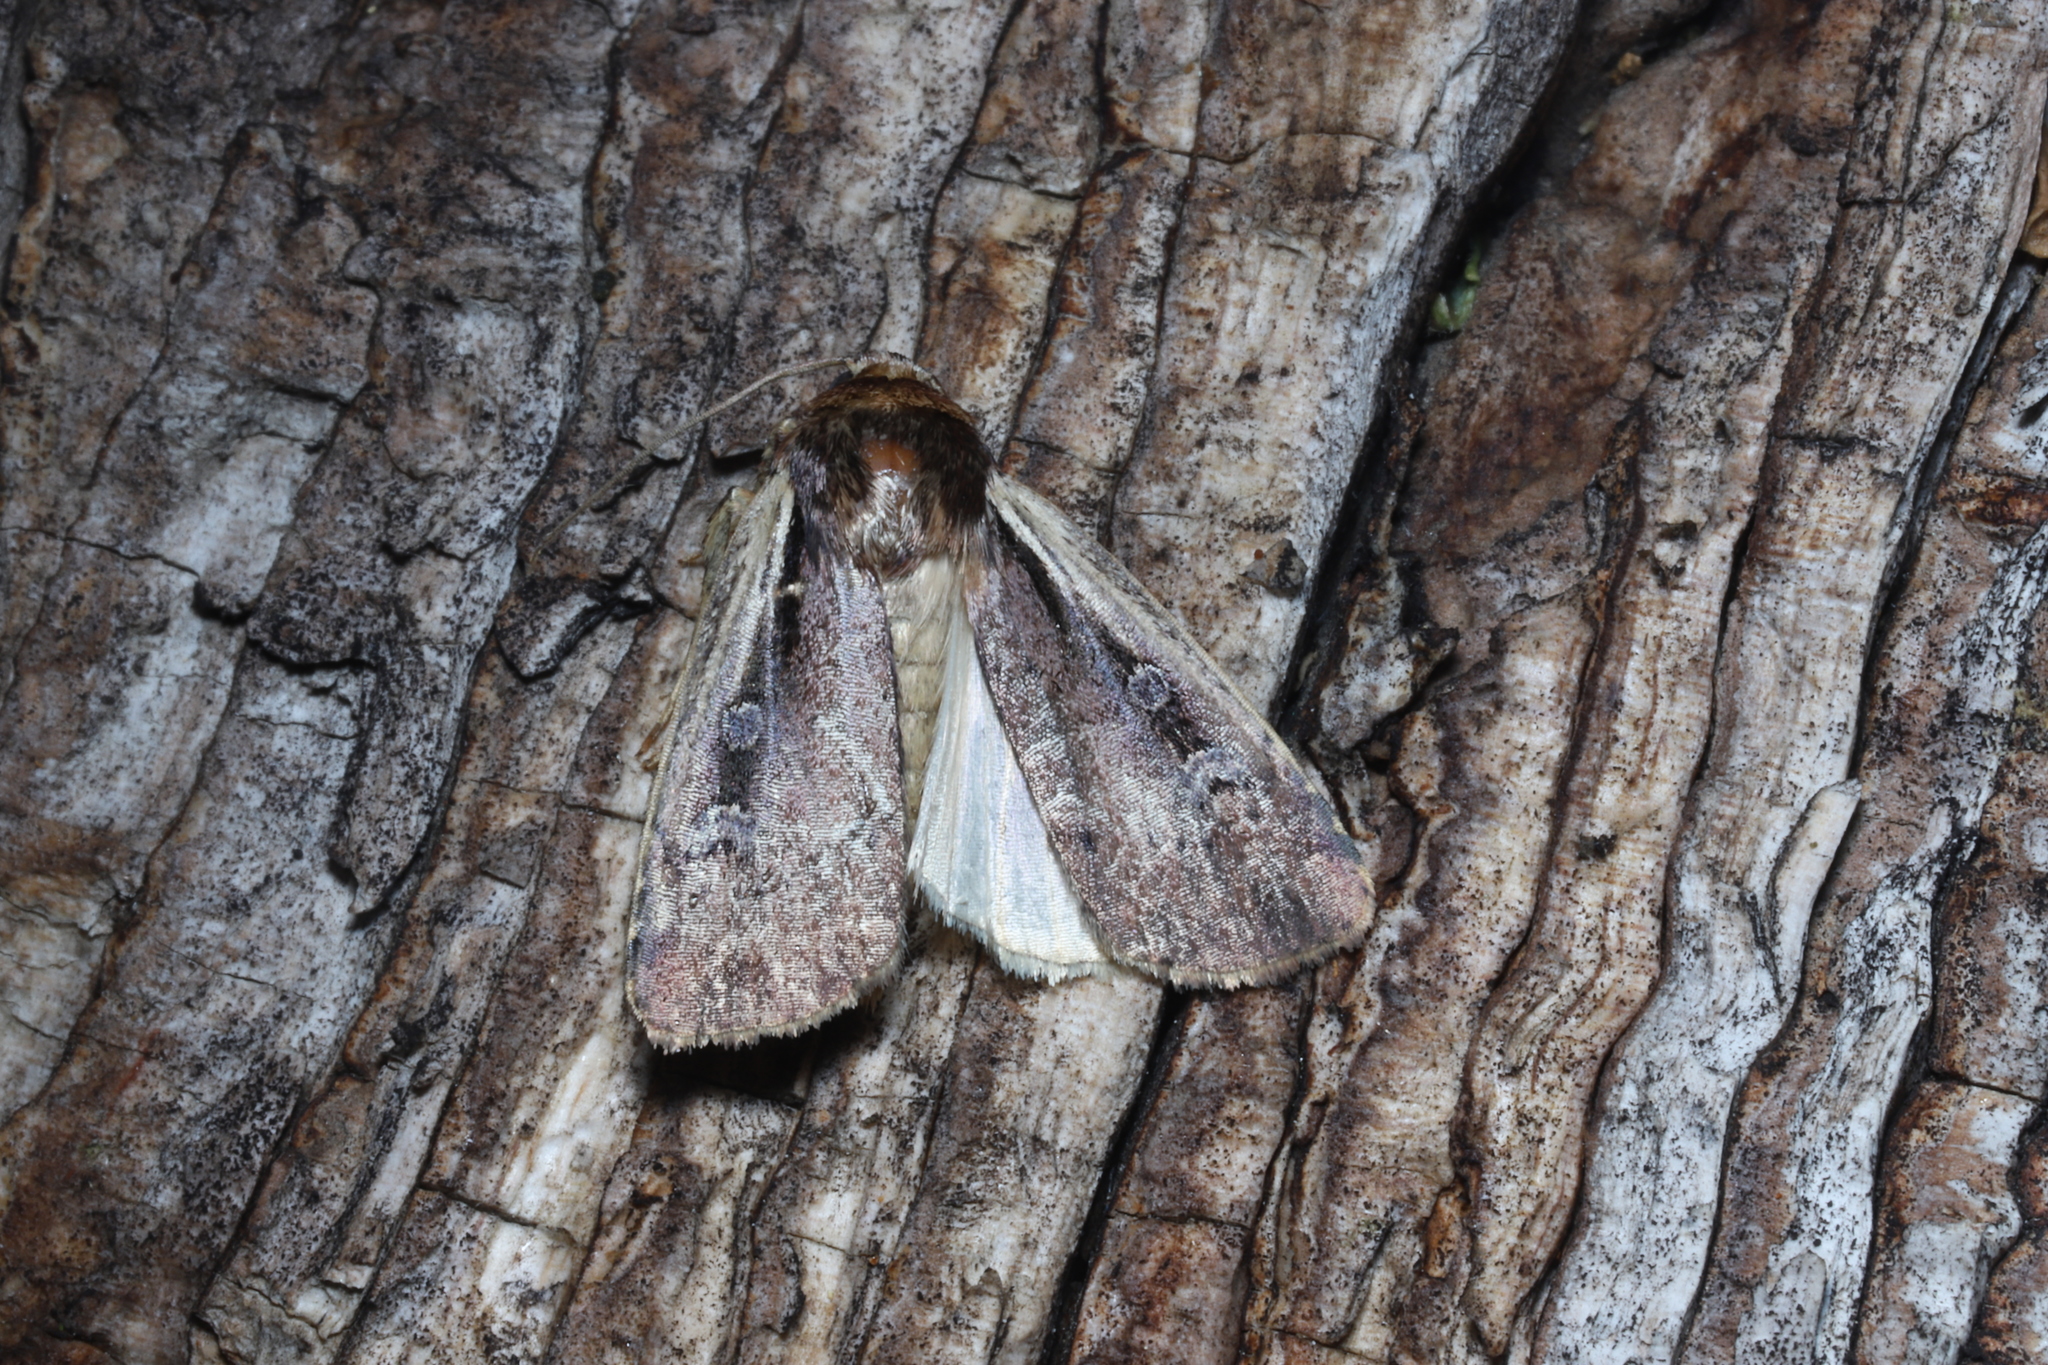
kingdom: Animalia
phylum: Arthropoda
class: Insecta
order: Lepidoptera
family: Noctuidae
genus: Ochropleura
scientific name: Ochropleura implecta
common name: Flame-shouldered dart
